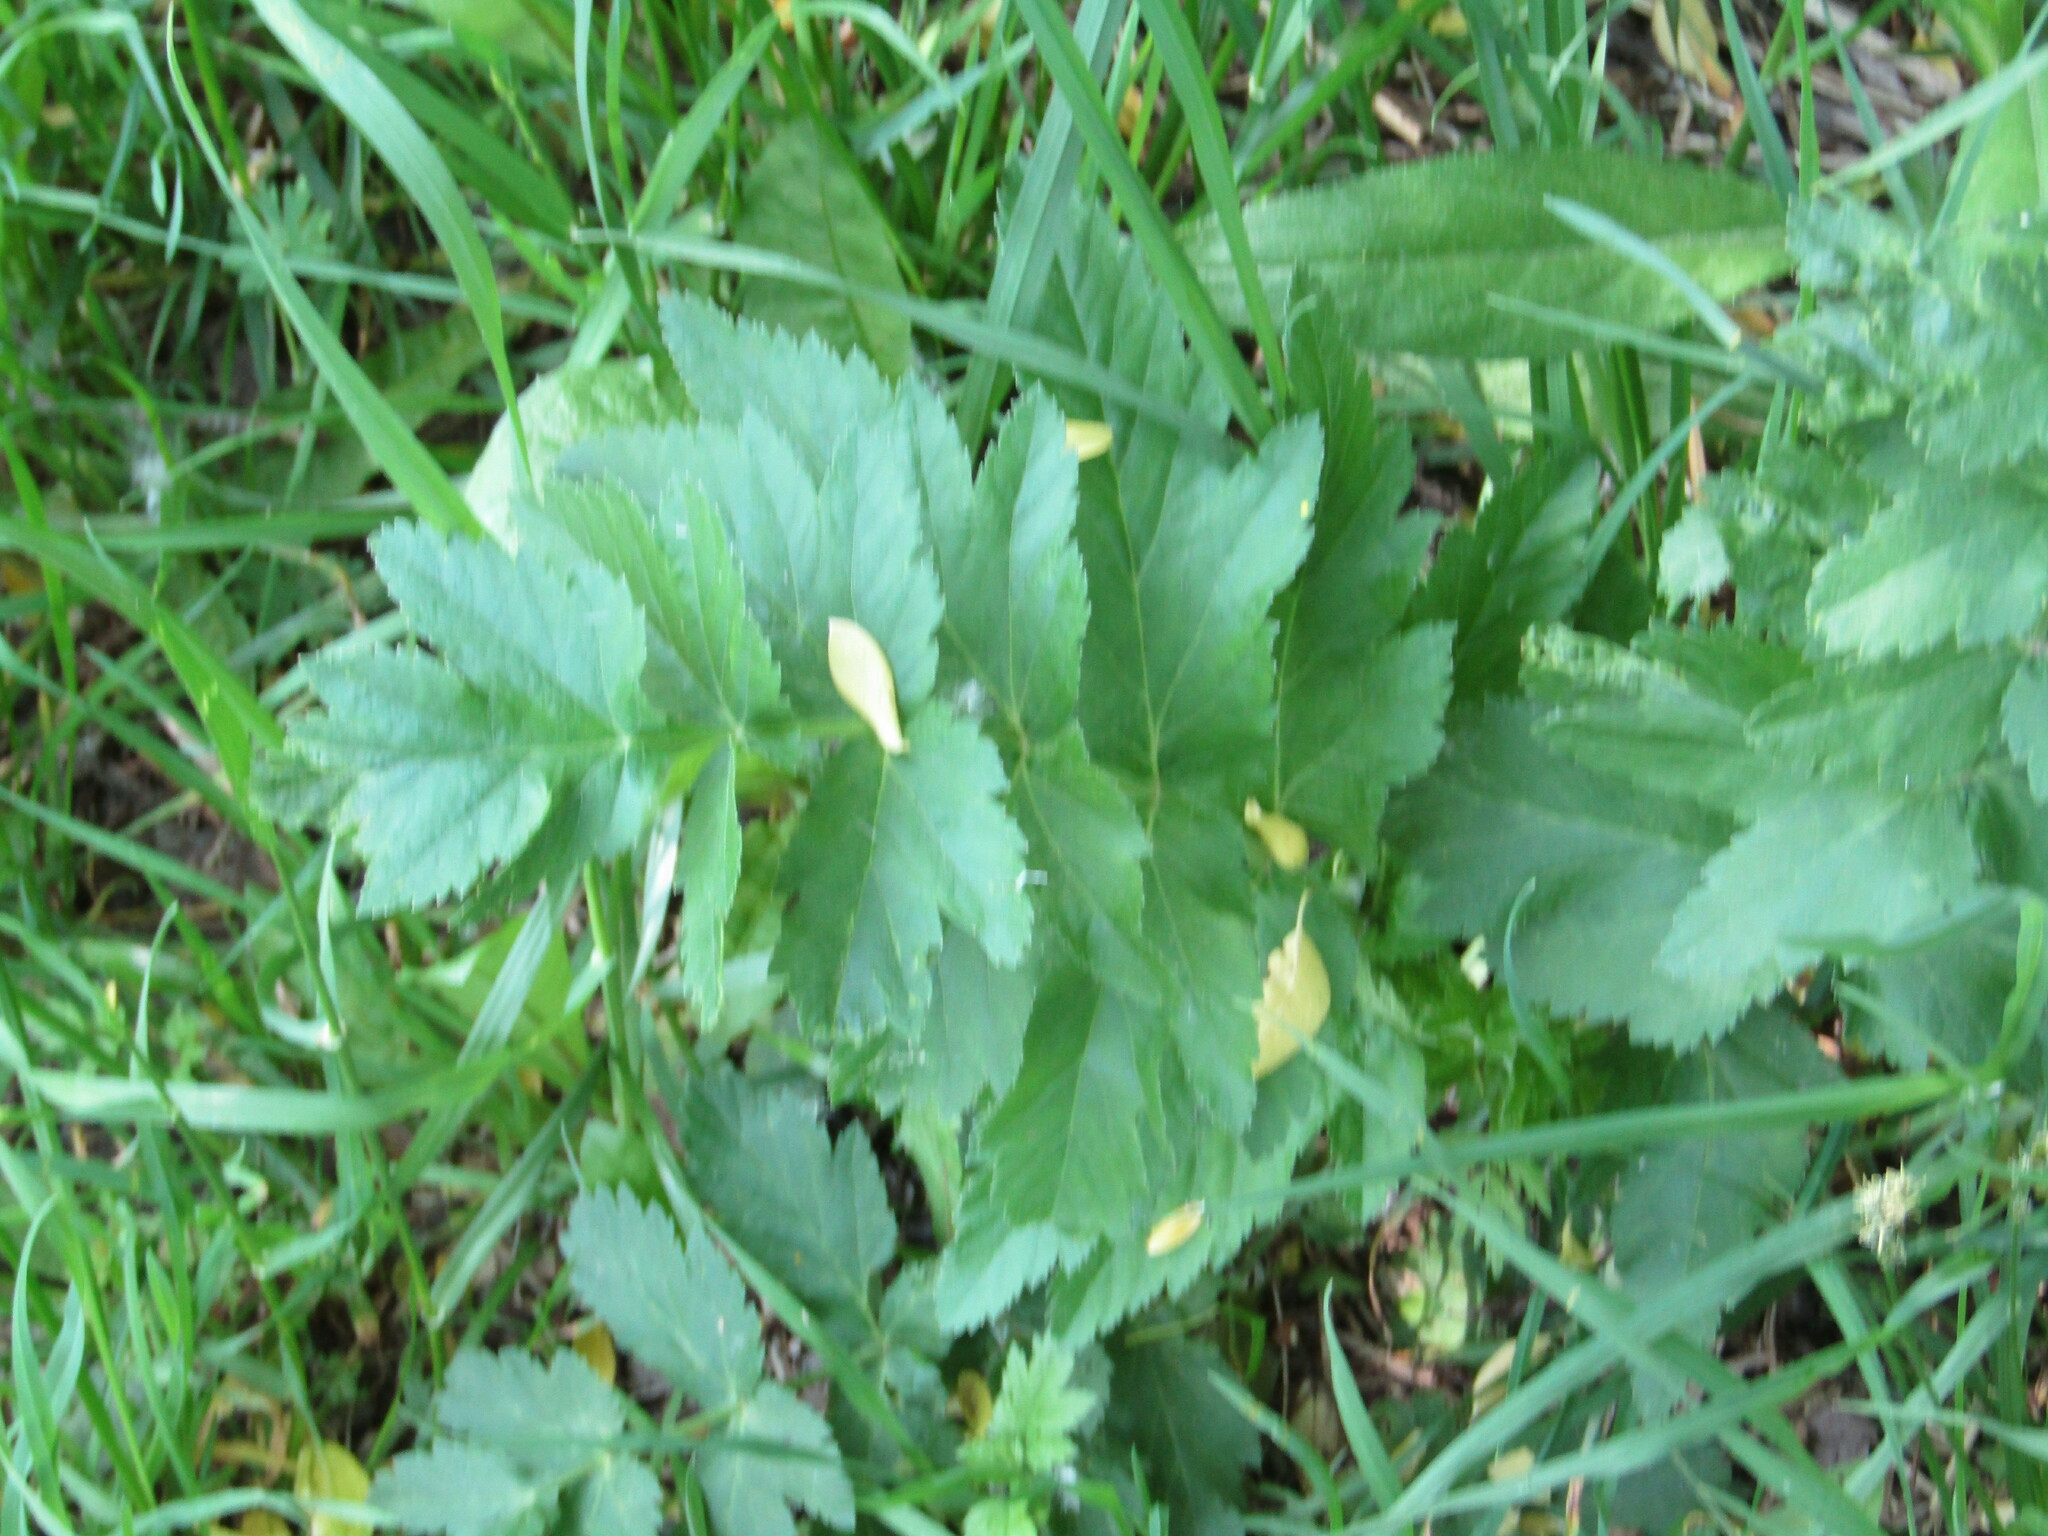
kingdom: Plantae
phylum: Tracheophyta
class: Magnoliopsida
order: Apiales
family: Apiaceae
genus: Pastinaca
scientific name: Pastinaca sativa
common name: Wild parsnip
